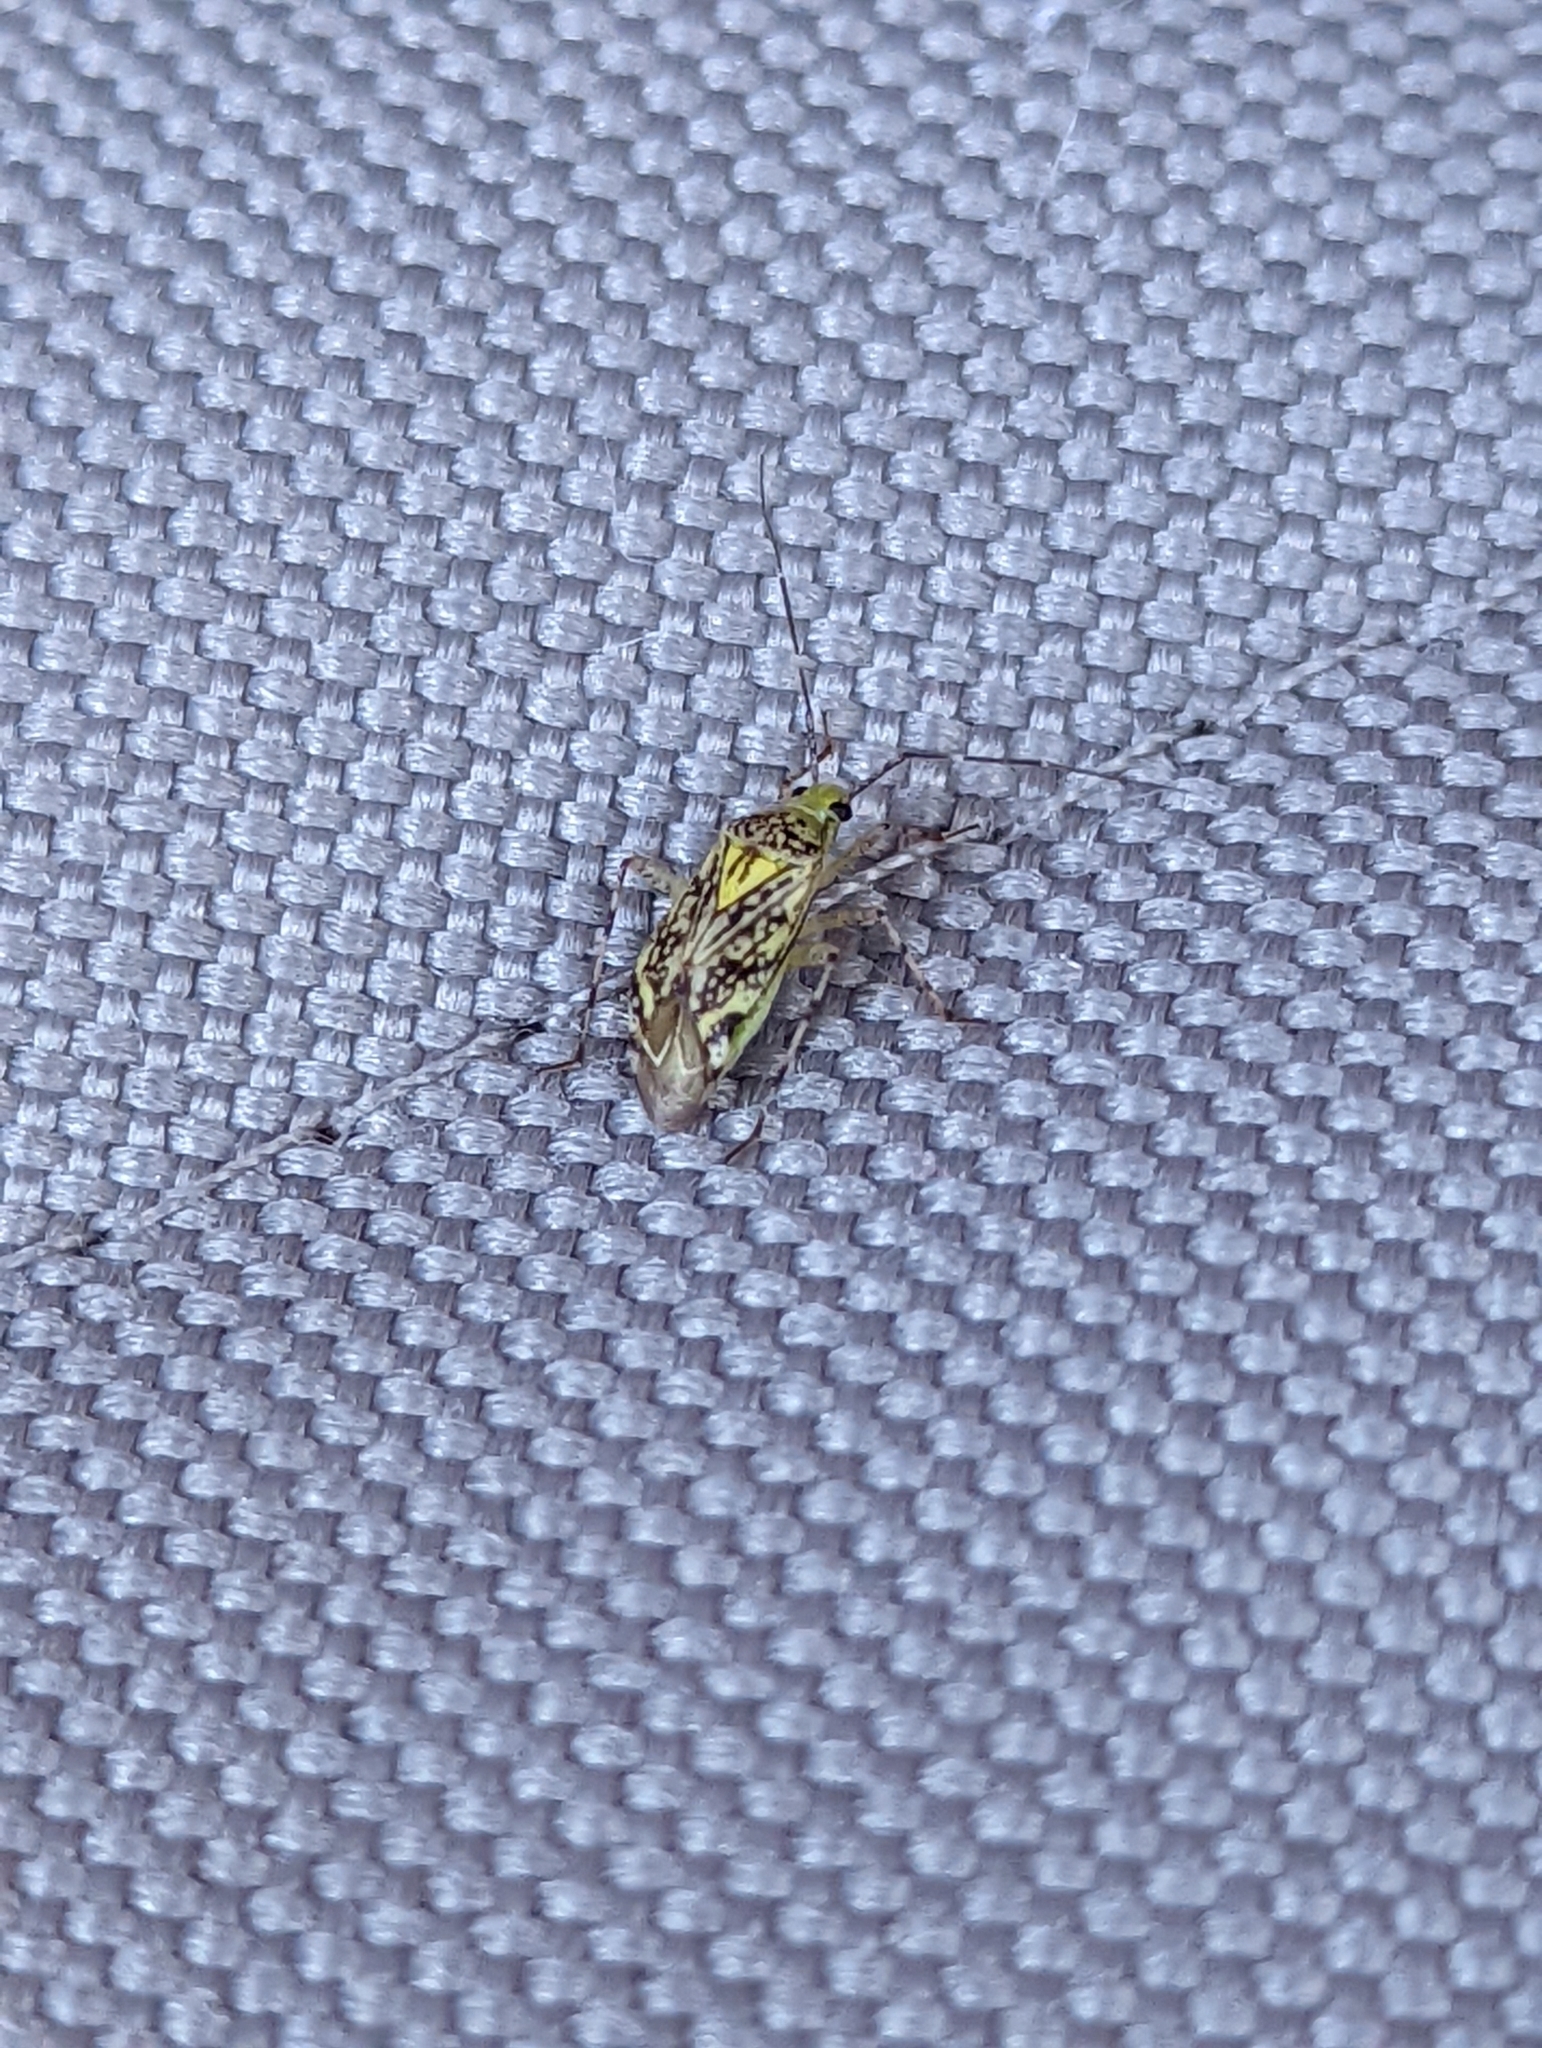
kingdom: Animalia
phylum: Arthropoda
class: Insecta
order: Hemiptera
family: Miridae
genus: Taedia
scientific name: Taedia marmorata
